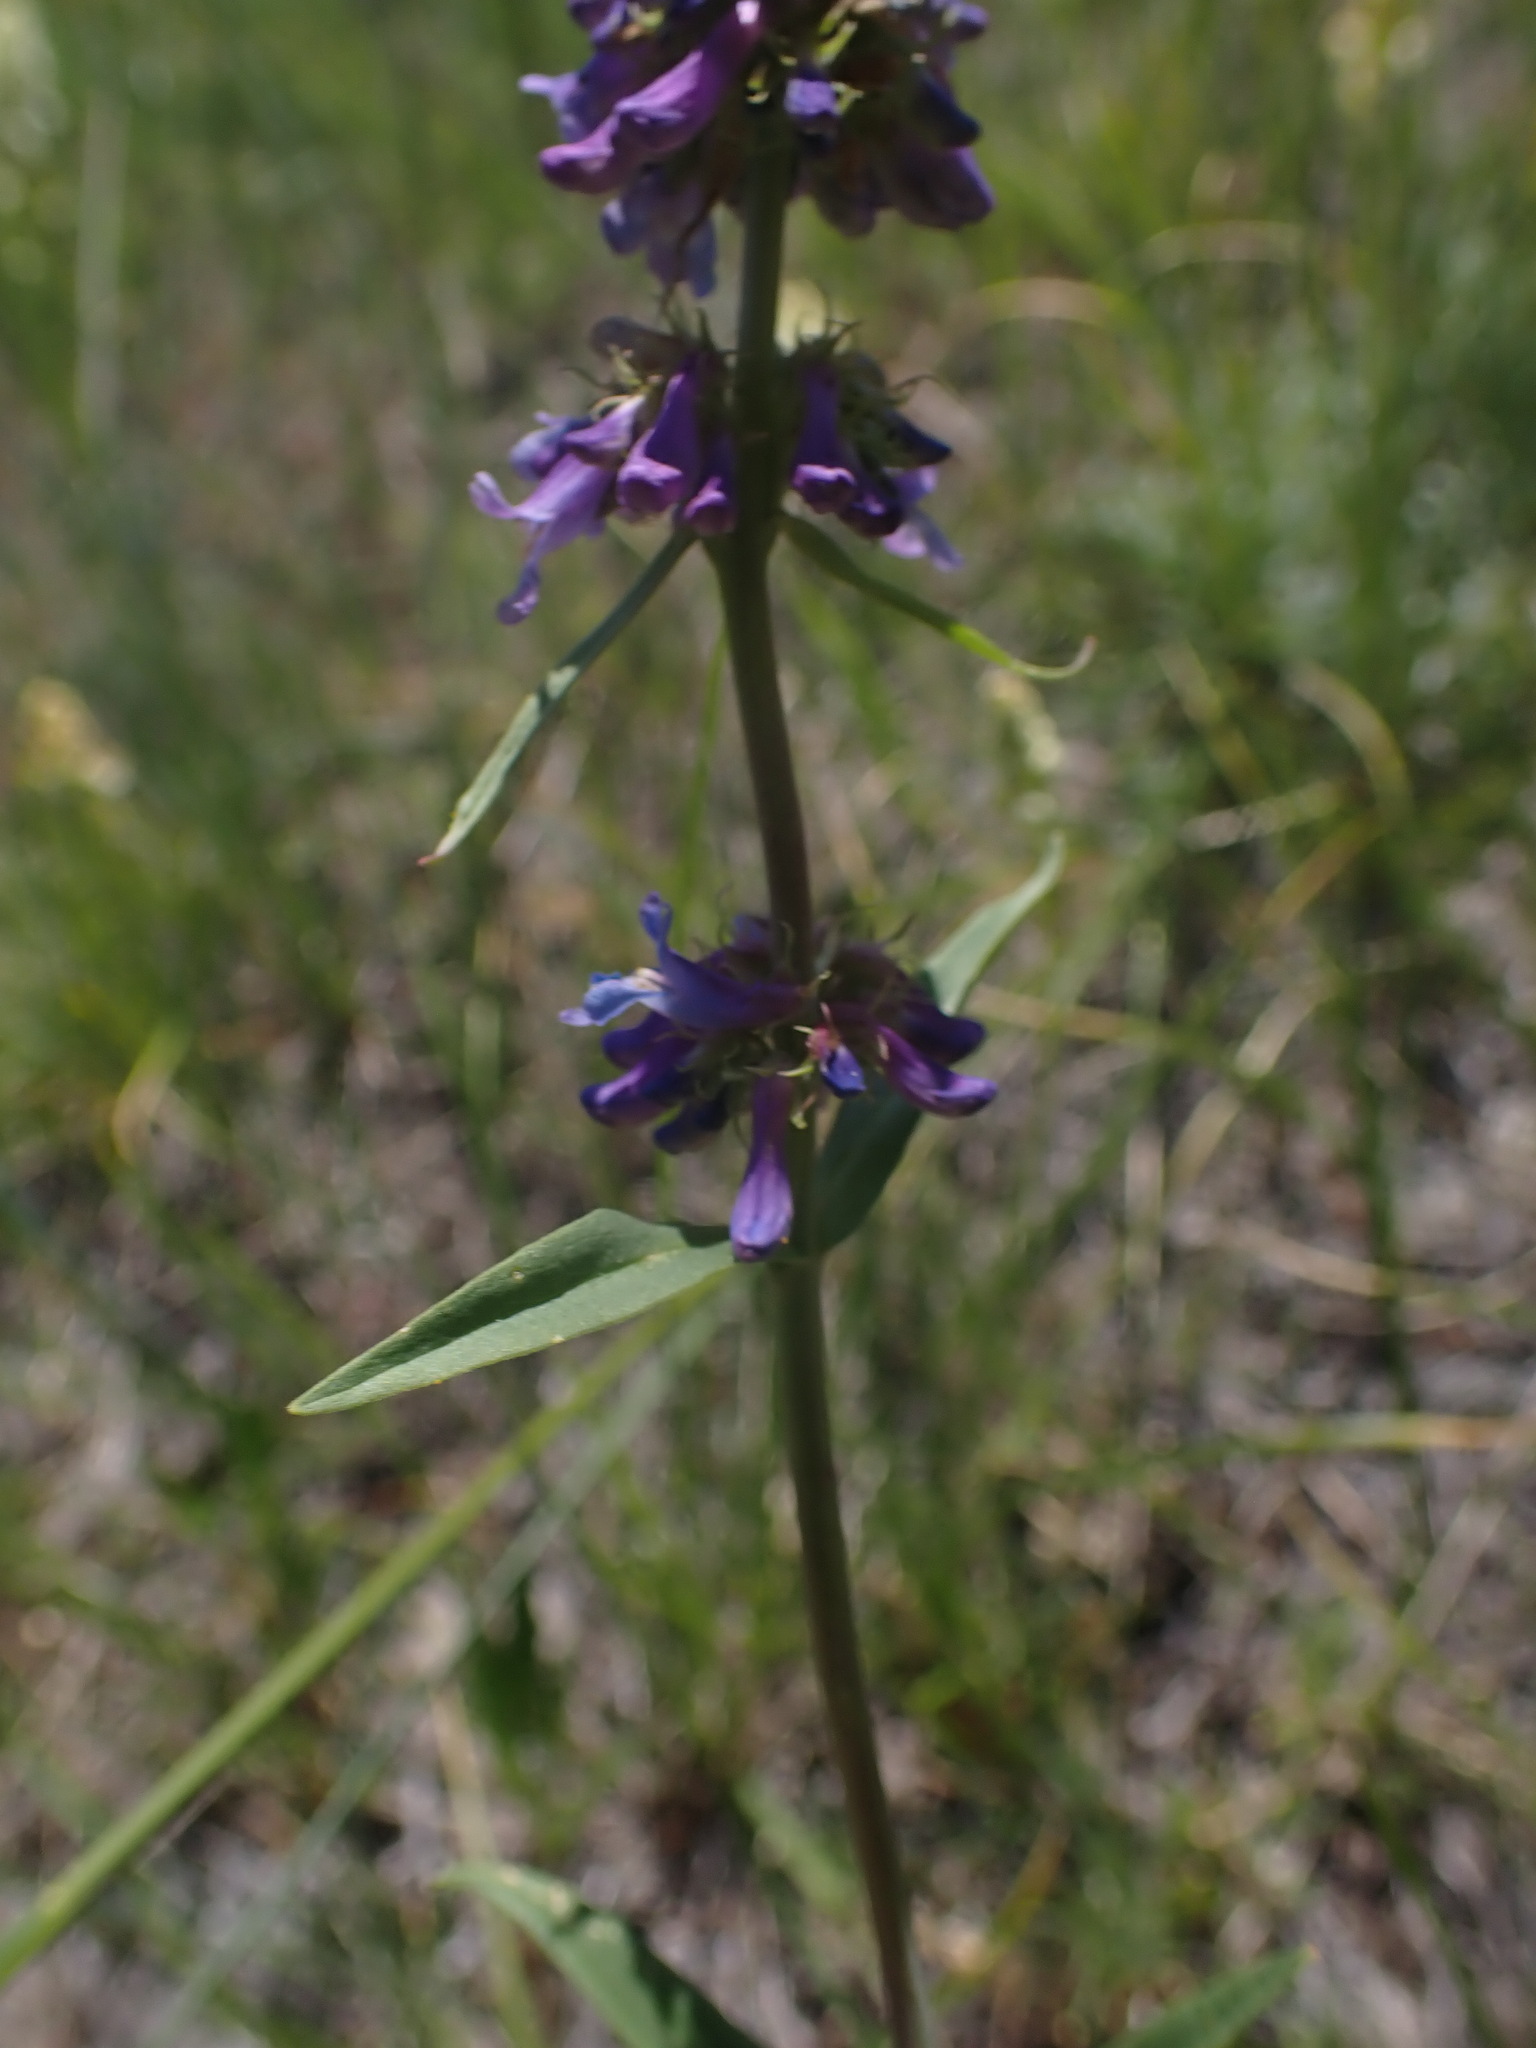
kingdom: Plantae
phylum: Tracheophyta
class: Magnoliopsida
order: Lamiales
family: Plantaginaceae
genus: Penstemon
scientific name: Penstemon procerus
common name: Small-flower penstemon
